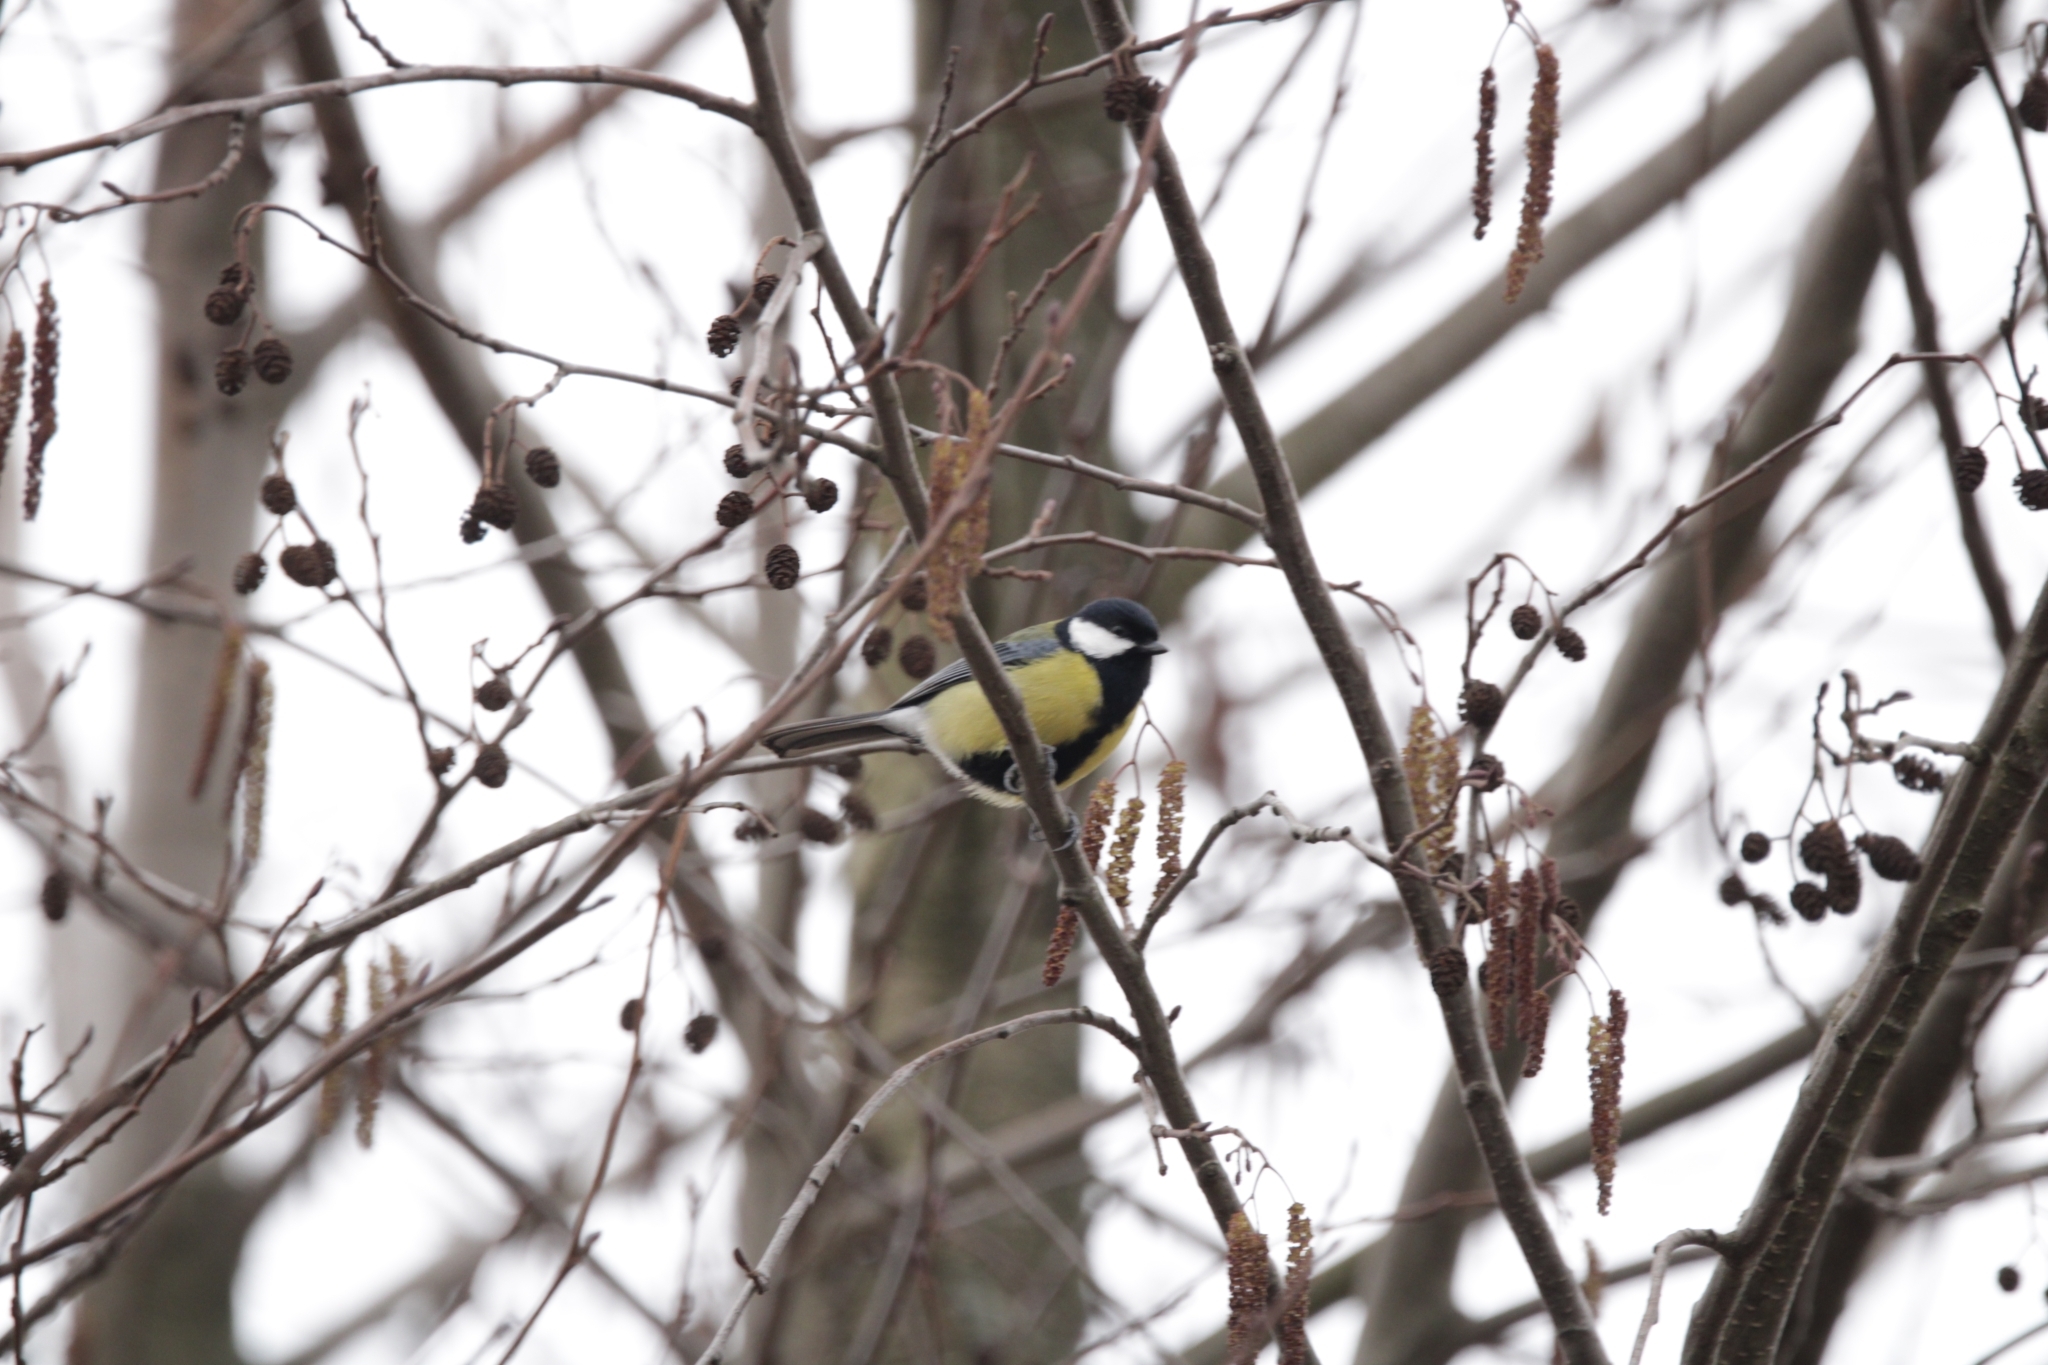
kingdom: Animalia
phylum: Chordata
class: Aves
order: Passeriformes
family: Paridae
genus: Parus
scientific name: Parus major
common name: Great tit
